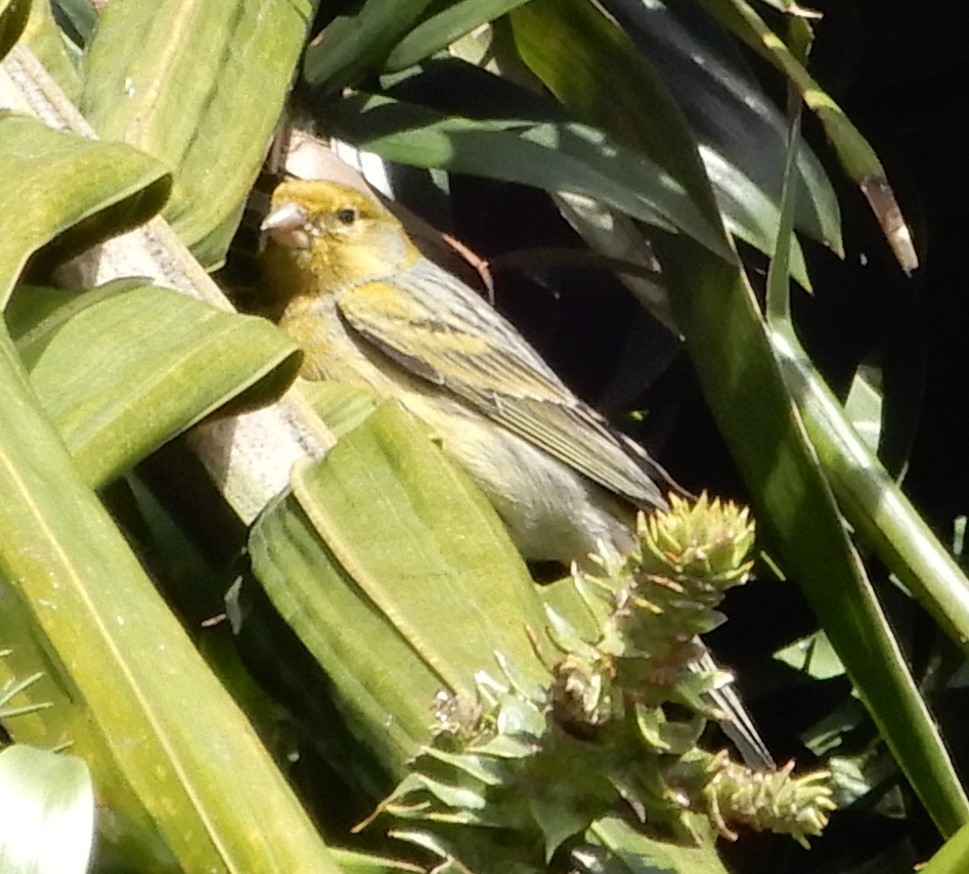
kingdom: Animalia
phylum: Chordata
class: Aves
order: Passeriformes
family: Fringillidae
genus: Serinus
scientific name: Serinus canaria
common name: Atlantic canary
